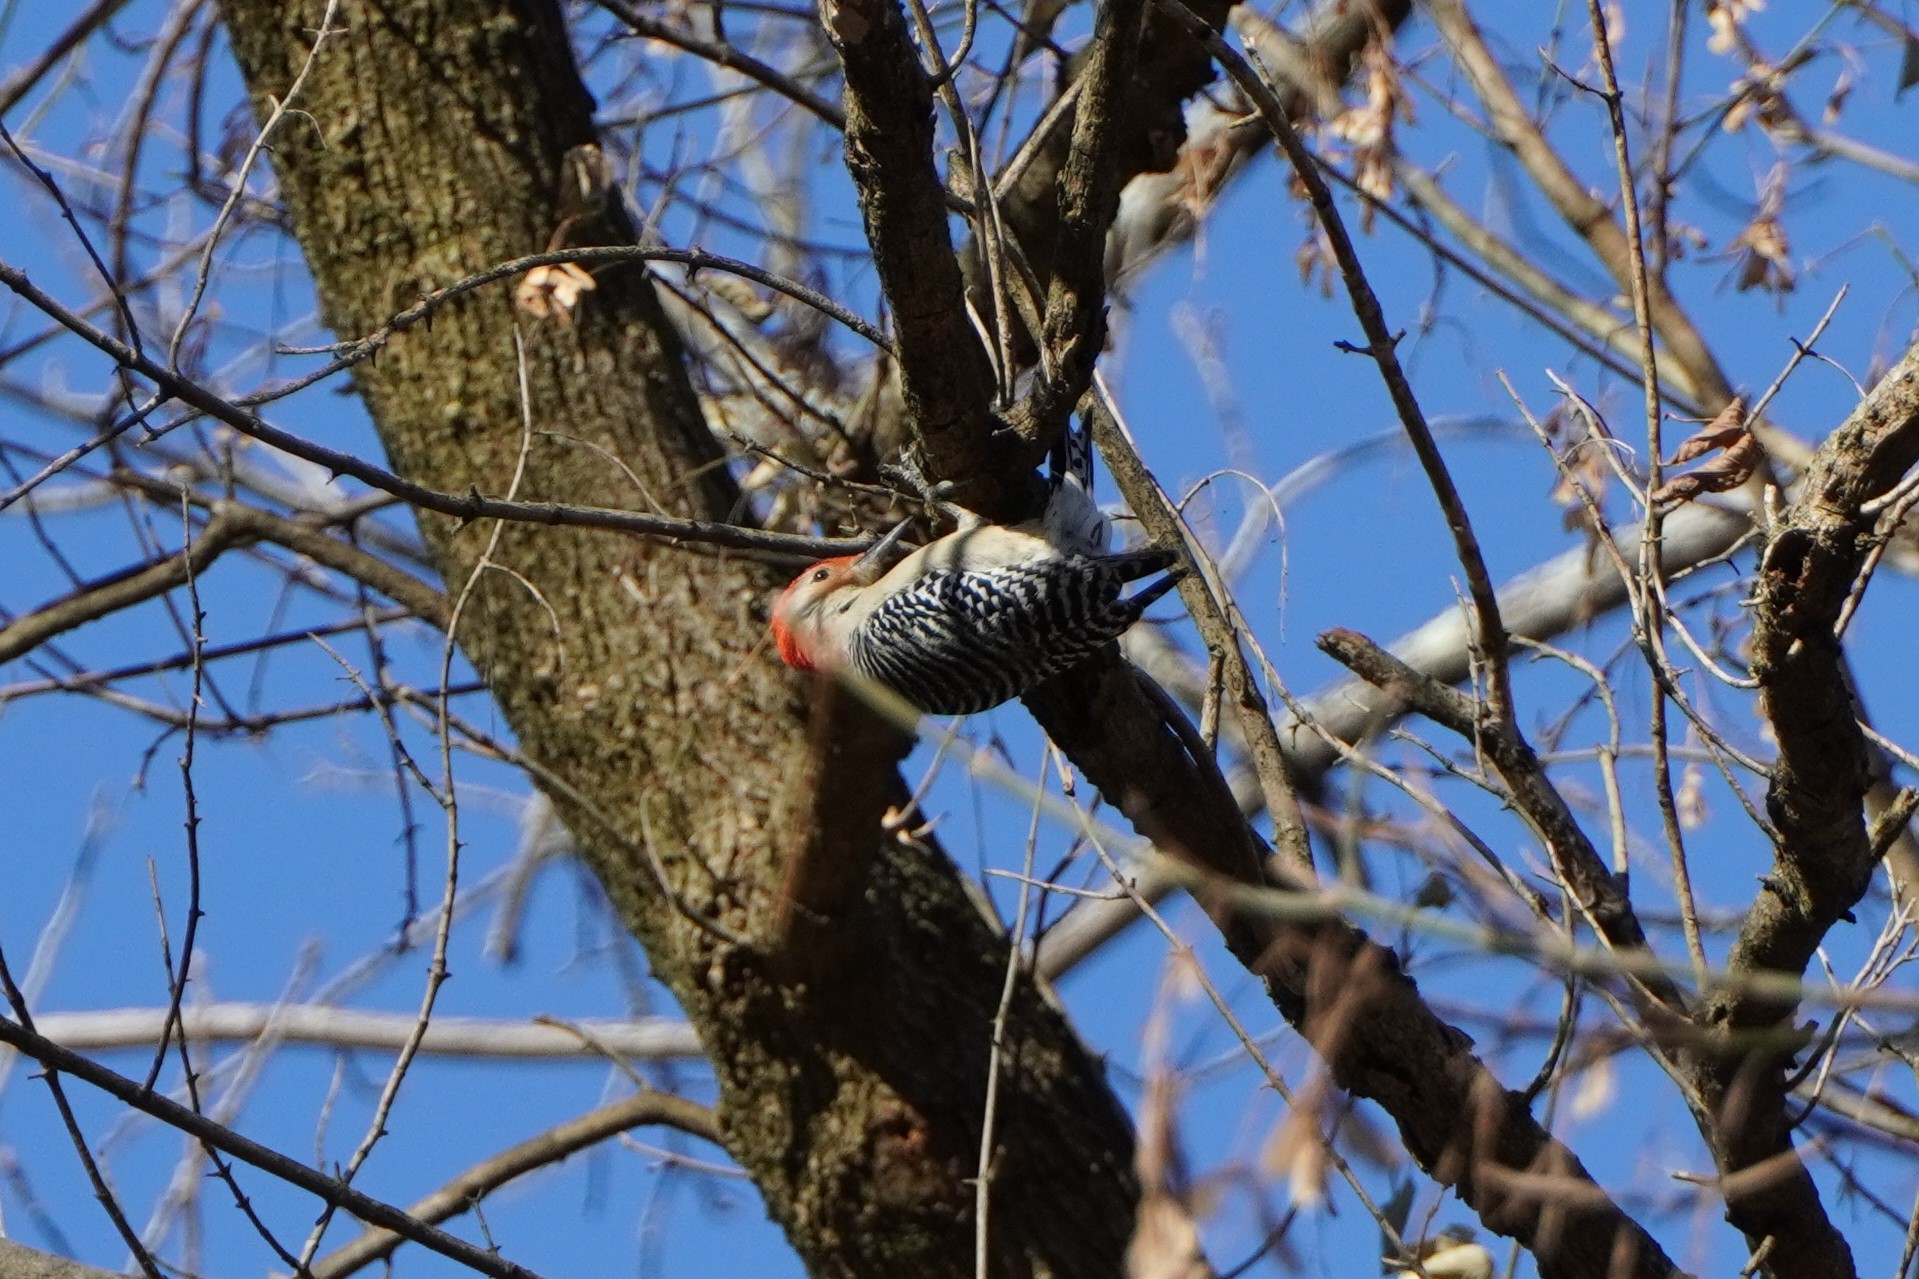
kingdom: Animalia
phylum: Chordata
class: Aves
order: Piciformes
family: Picidae
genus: Melanerpes
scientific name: Melanerpes carolinus
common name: Red-bellied woodpecker
